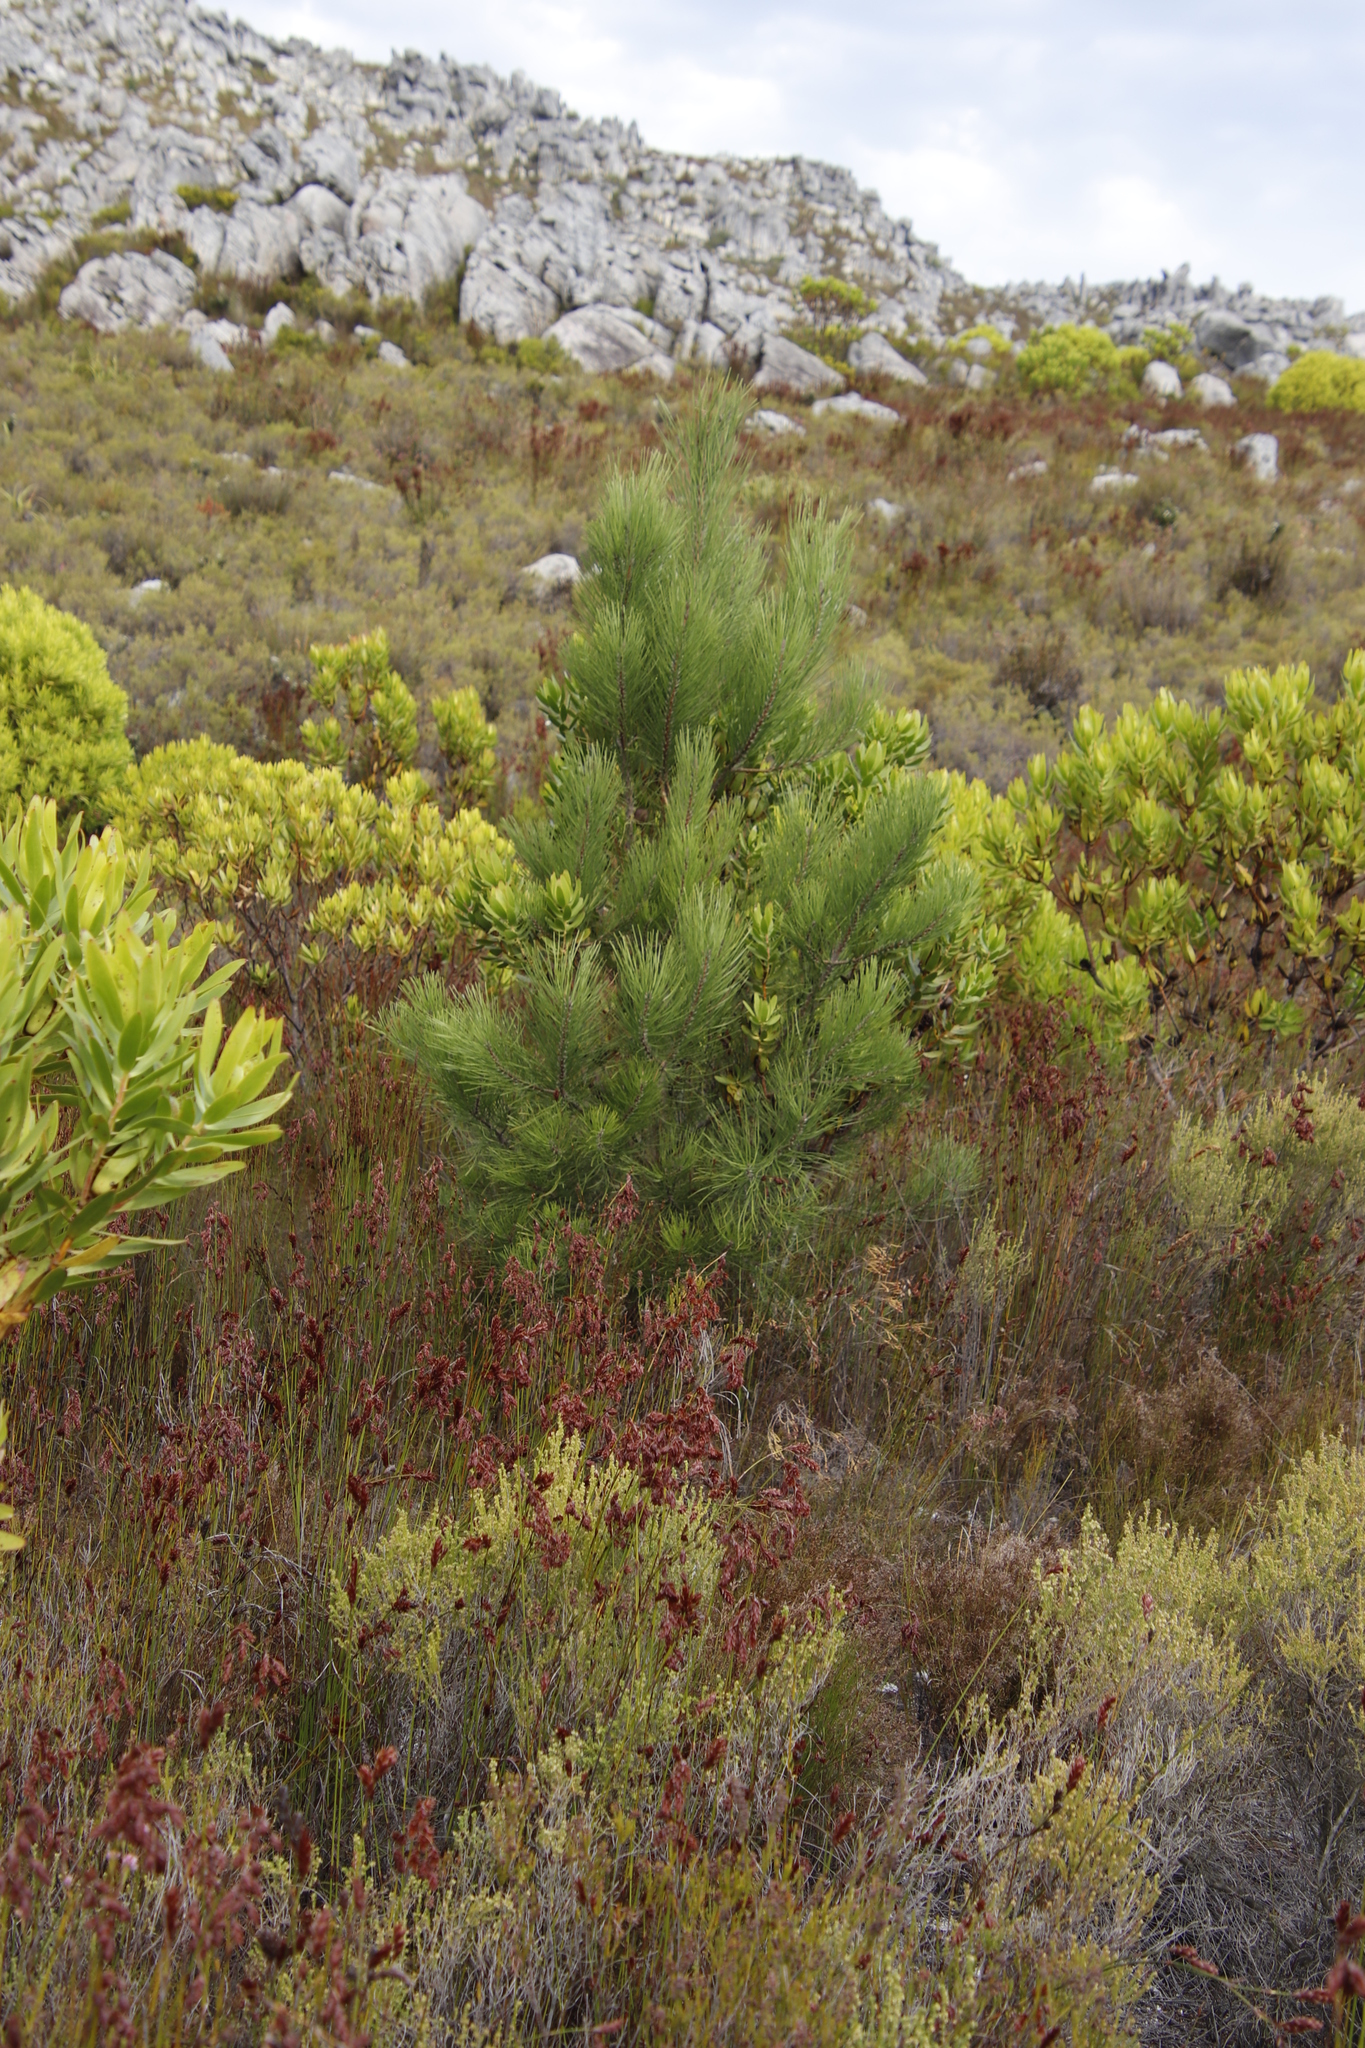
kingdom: Plantae
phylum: Tracheophyta
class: Pinopsida
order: Pinales
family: Pinaceae
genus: Pinus
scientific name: Pinus pinaster
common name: Maritime pine
